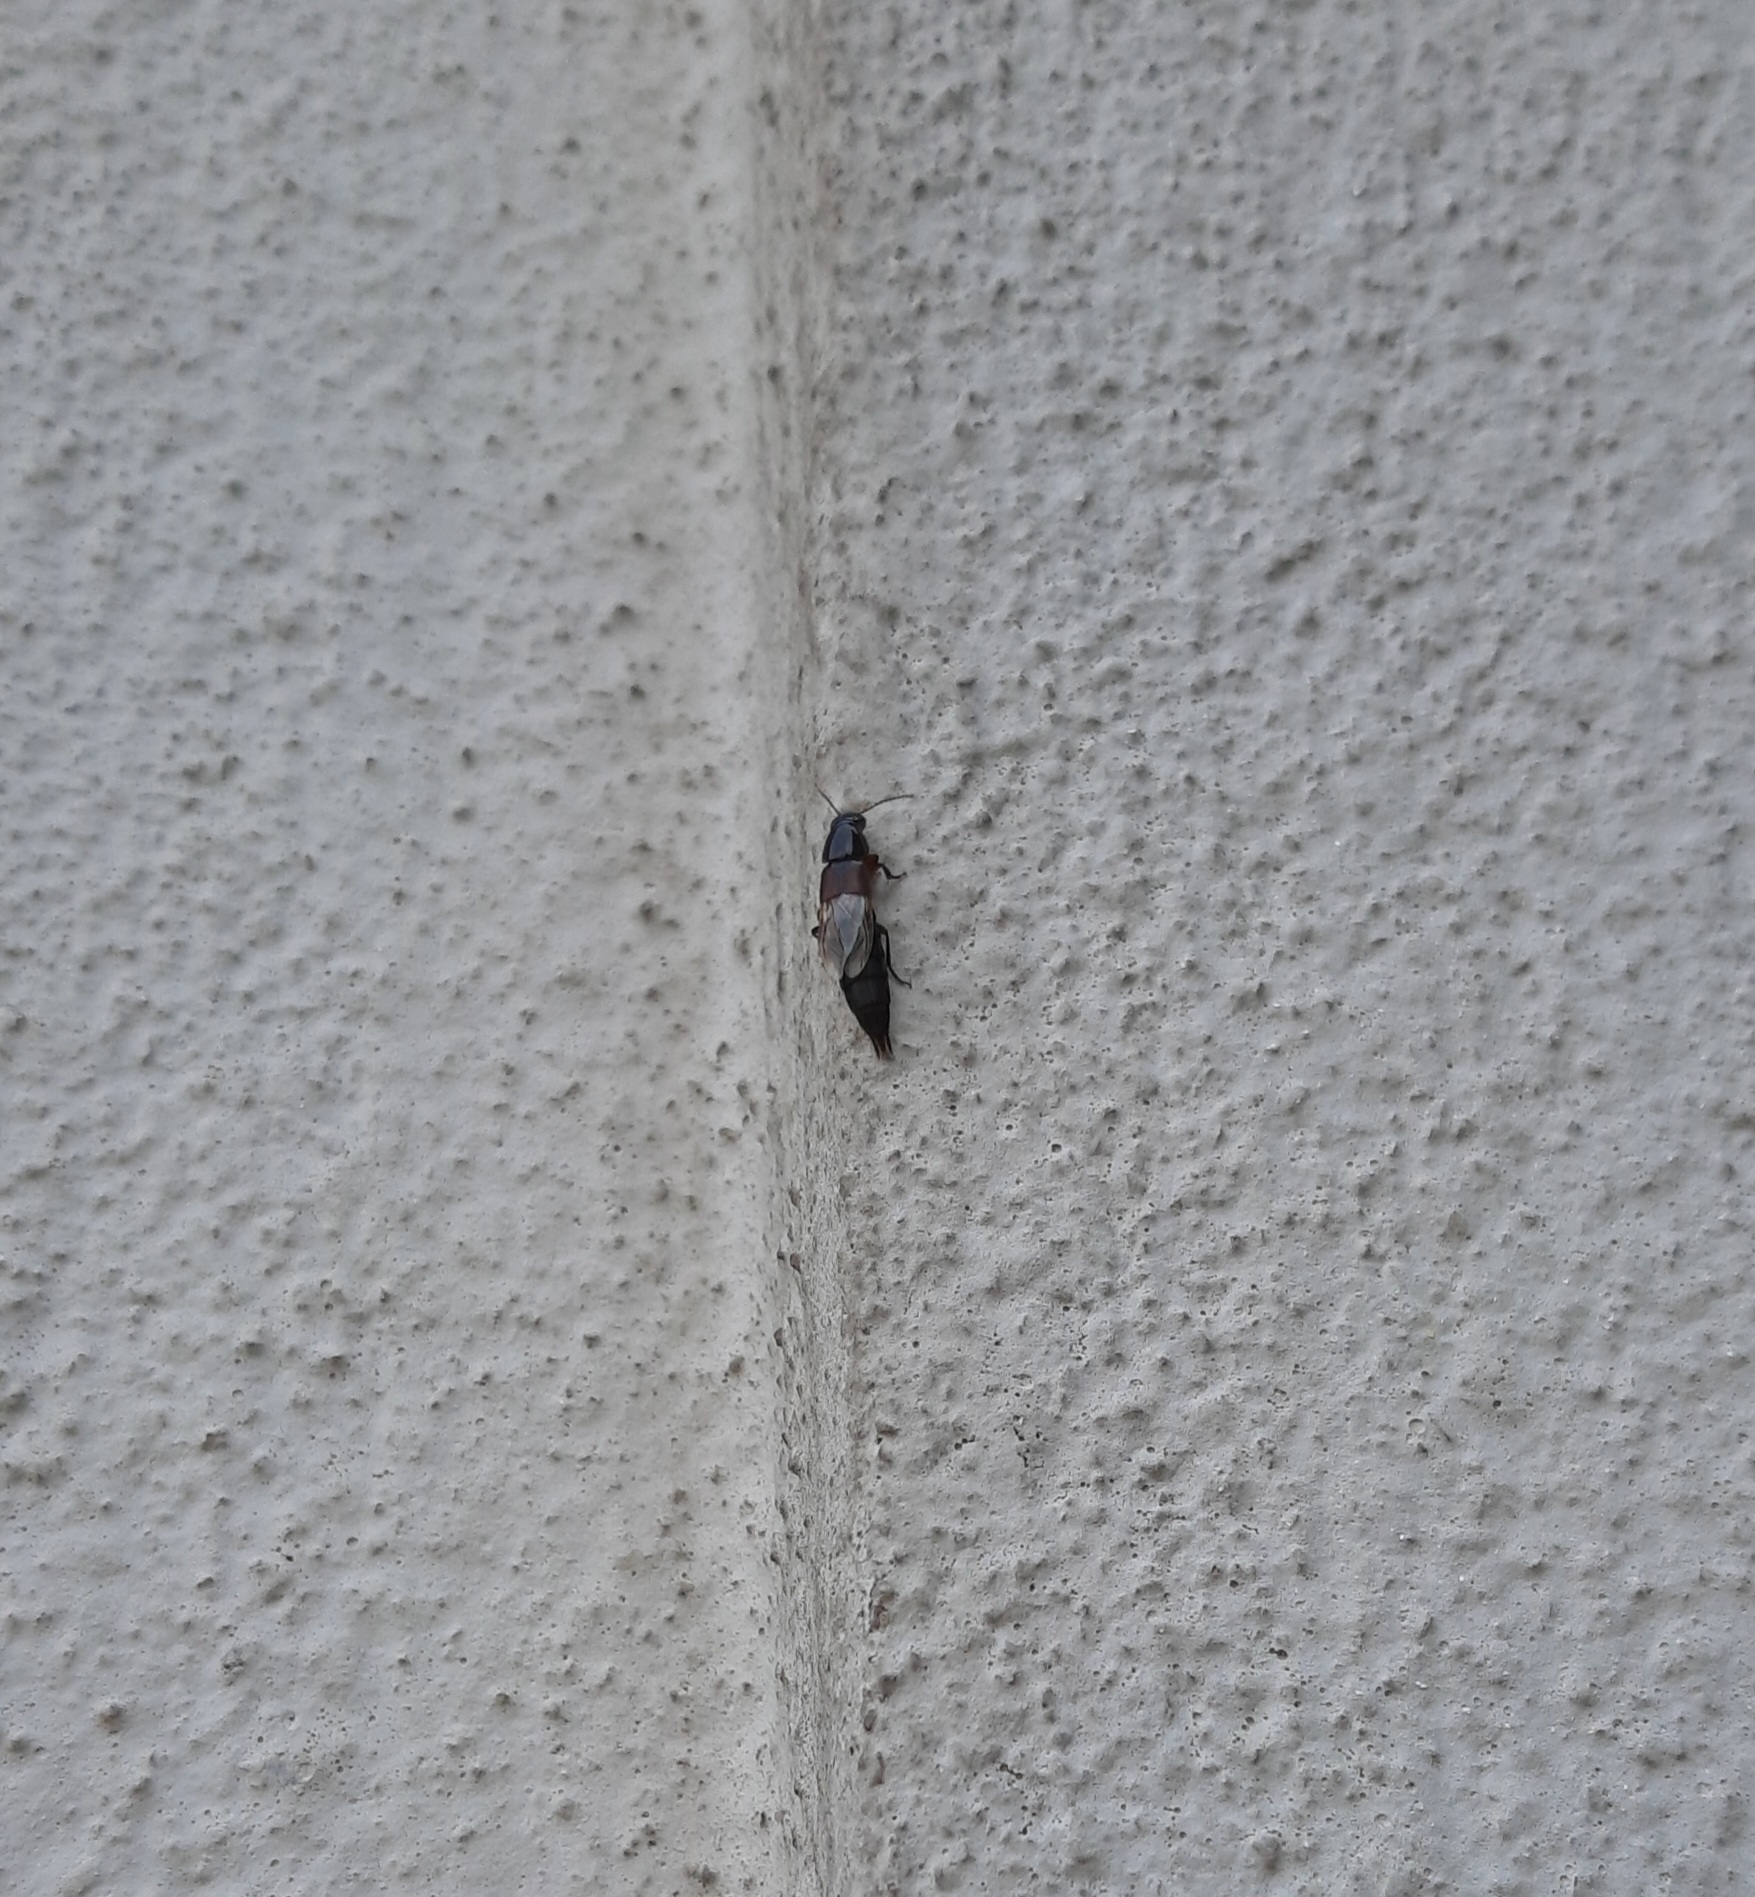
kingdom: Animalia
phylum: Arthropoda
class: Insecta
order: Coleoptera
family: Staphylinidae
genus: Quedius
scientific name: Quedius
